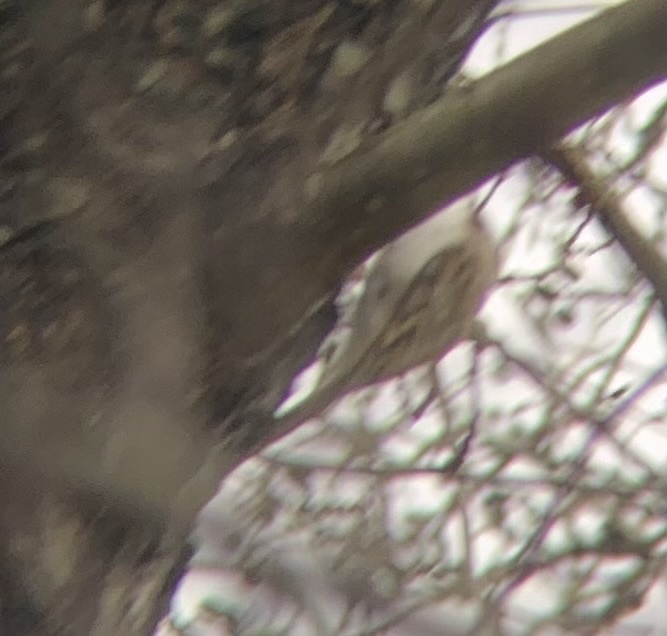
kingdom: Animalia
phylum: Chordata
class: Aves
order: Passeriformes
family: Certhiidae
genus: Certhia
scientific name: Certhia brachydactyla
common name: Short-toed treecreeper
